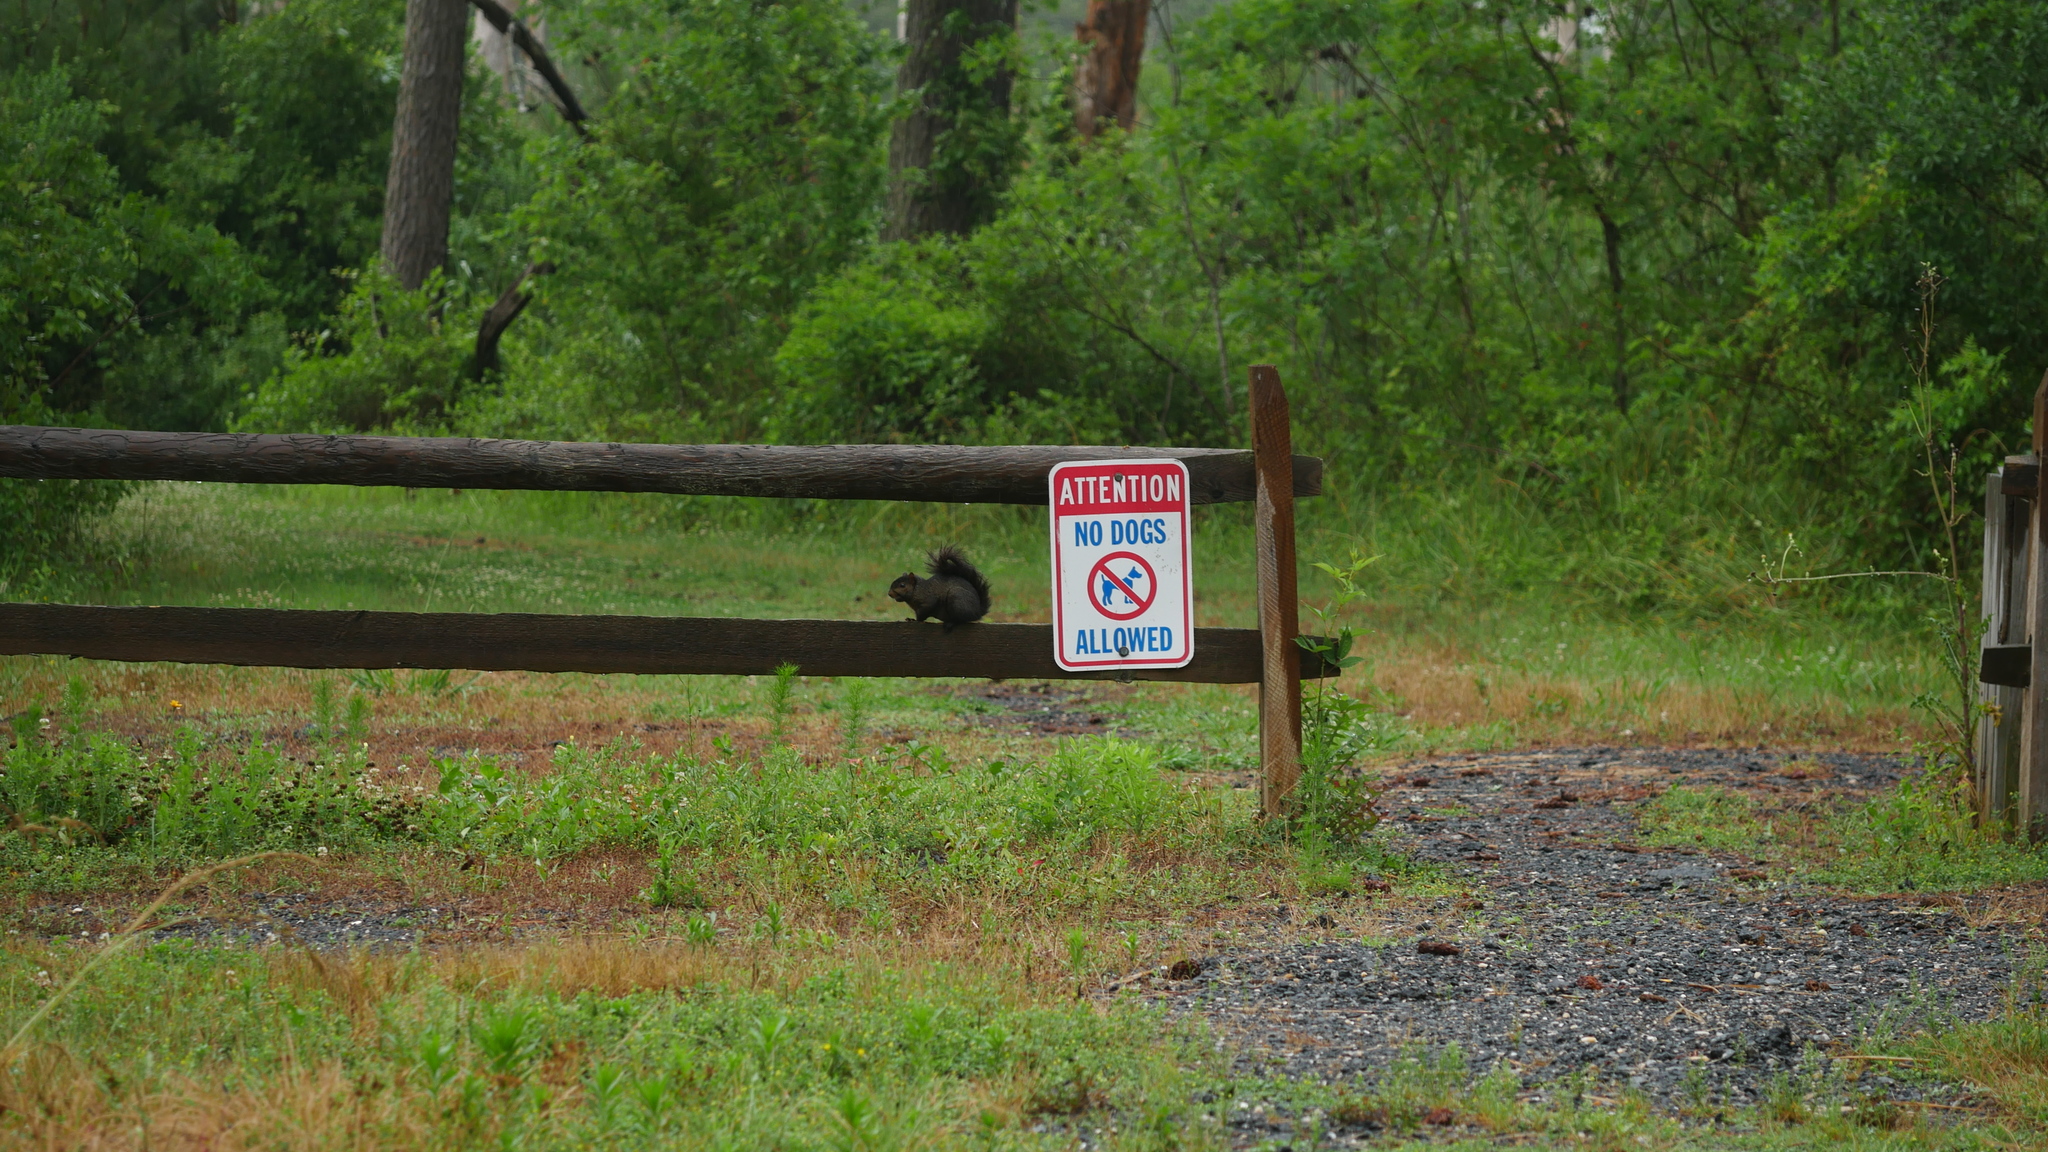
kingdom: Animalia
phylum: Chordata
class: Mammalia
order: Rodentia
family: Sciuridae
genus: Sciurus
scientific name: Sciurus carolinensis
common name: Eastern gray squirrel
